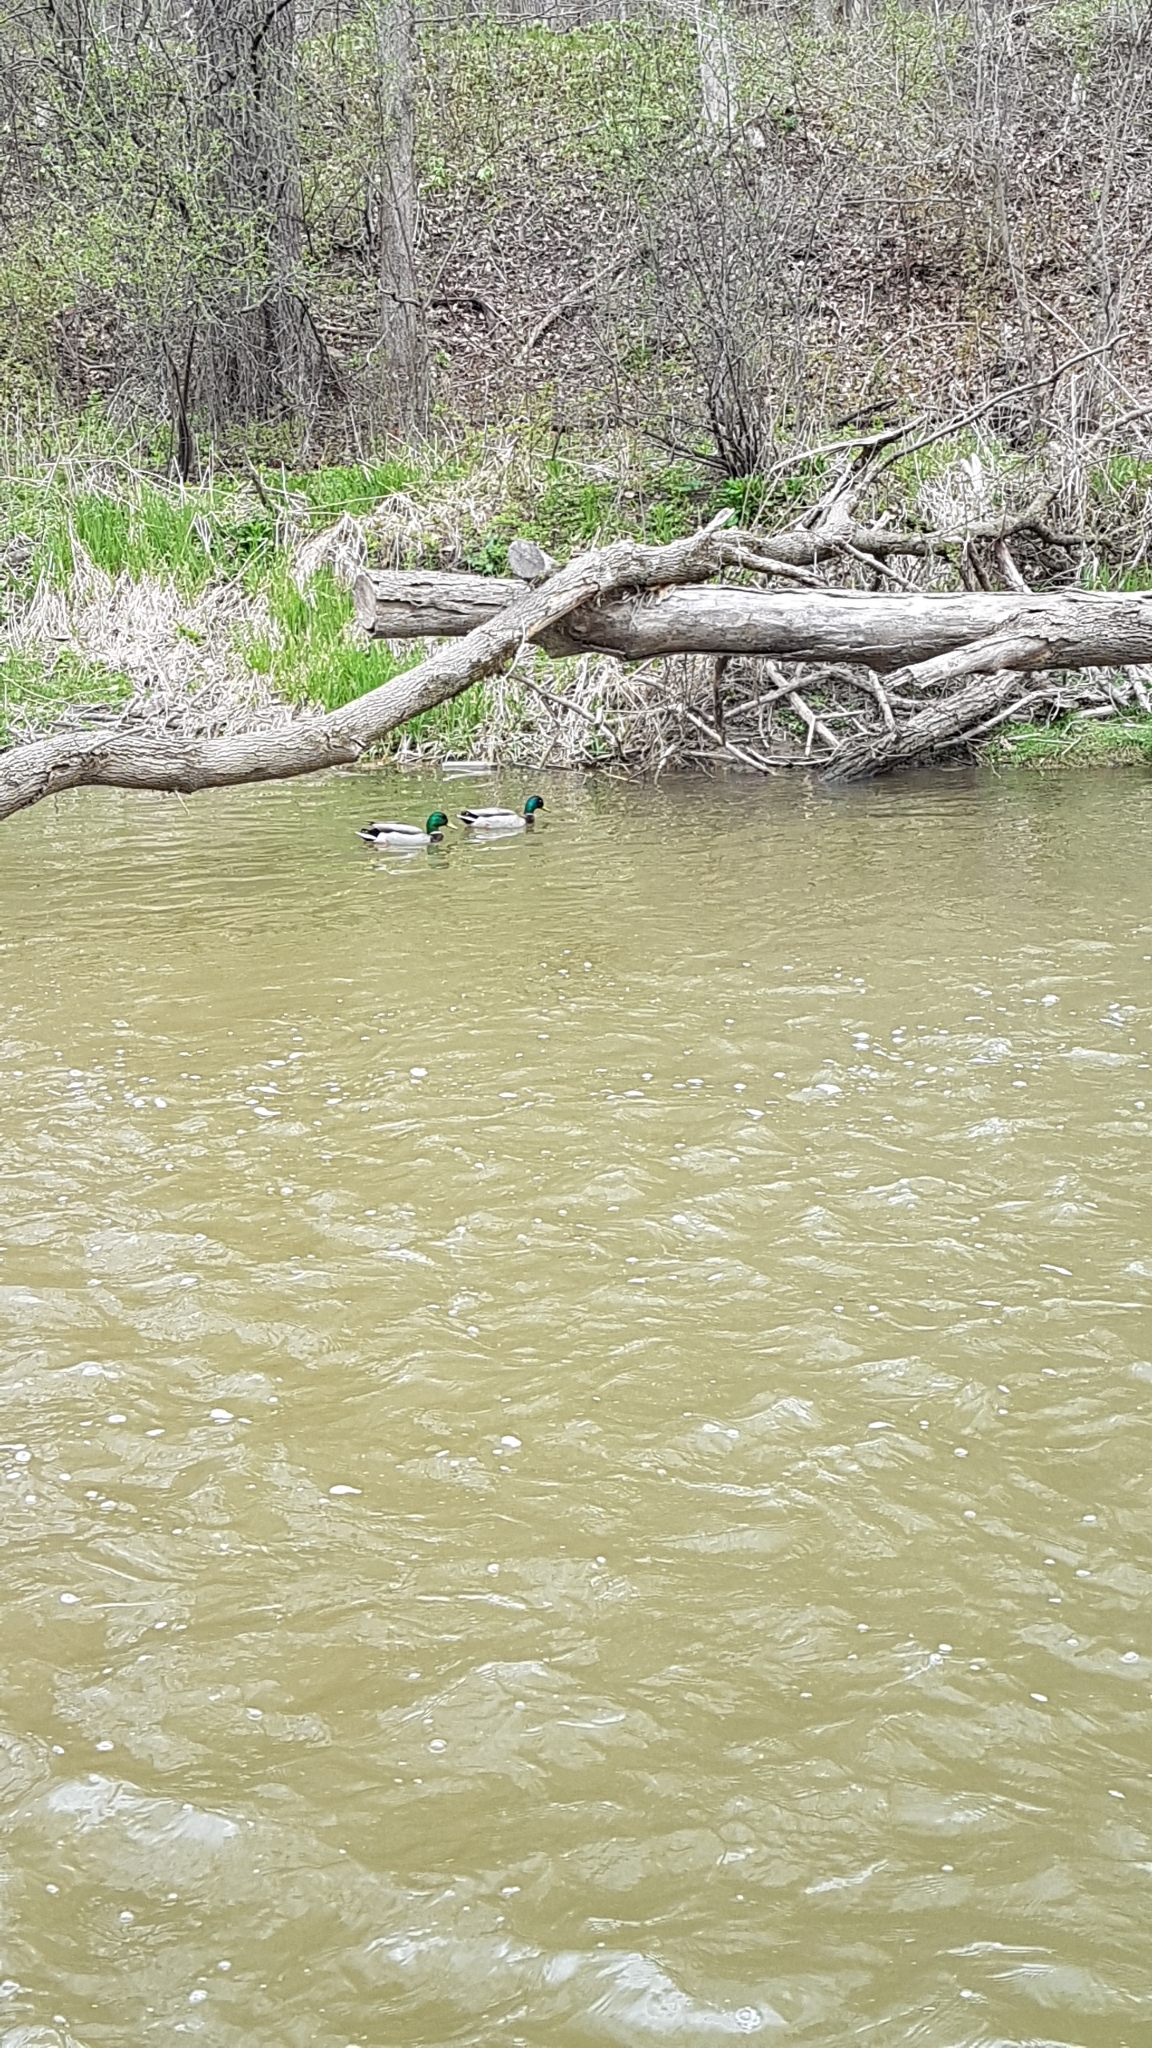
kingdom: Animalia
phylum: Chordata
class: Aves
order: Anseriformes
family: Anatidae
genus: Anas
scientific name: Anas platyrhynchos
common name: Mallard
